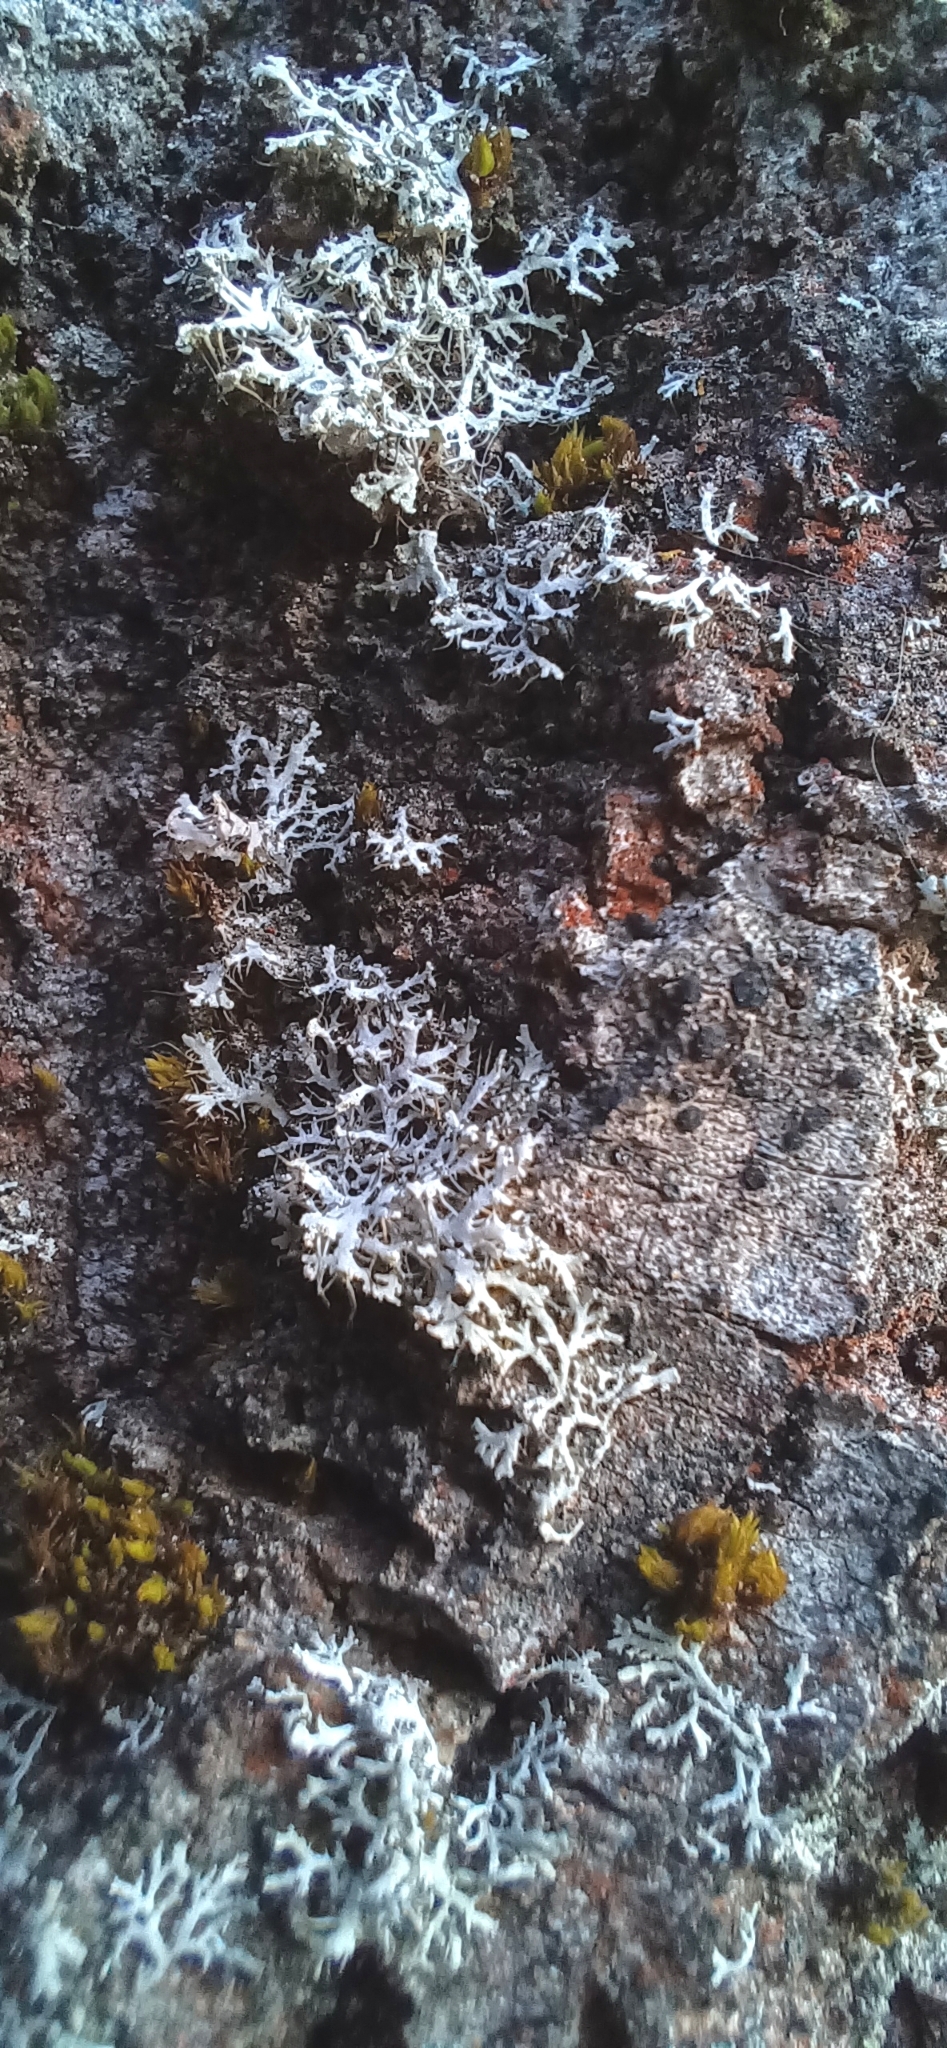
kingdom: Fungi
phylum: Ascomycota
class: Lecanoromycetes
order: Caliciales
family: Physciaceae
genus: Physcia
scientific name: Physcia adscendens
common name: Hooded rosette lichen
